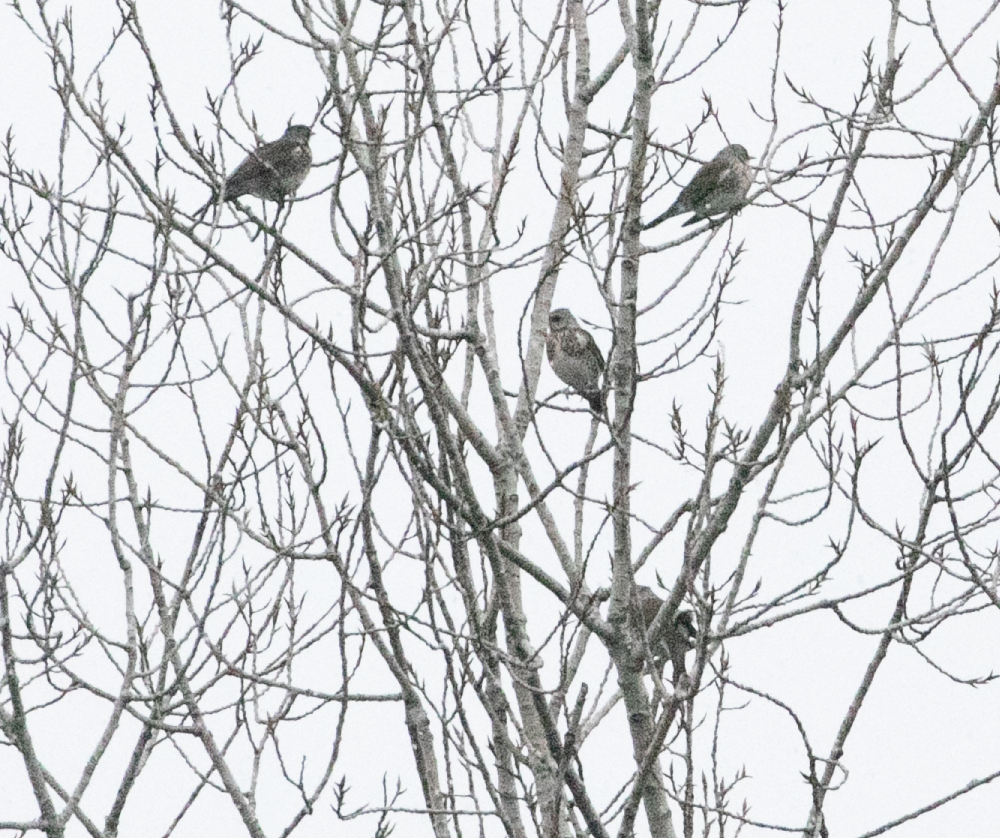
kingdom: Animalia
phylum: Chordata
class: Aves
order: Passeriformes
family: Turdidae
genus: Turdus
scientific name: Turdus pilaris
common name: Fieldfare
